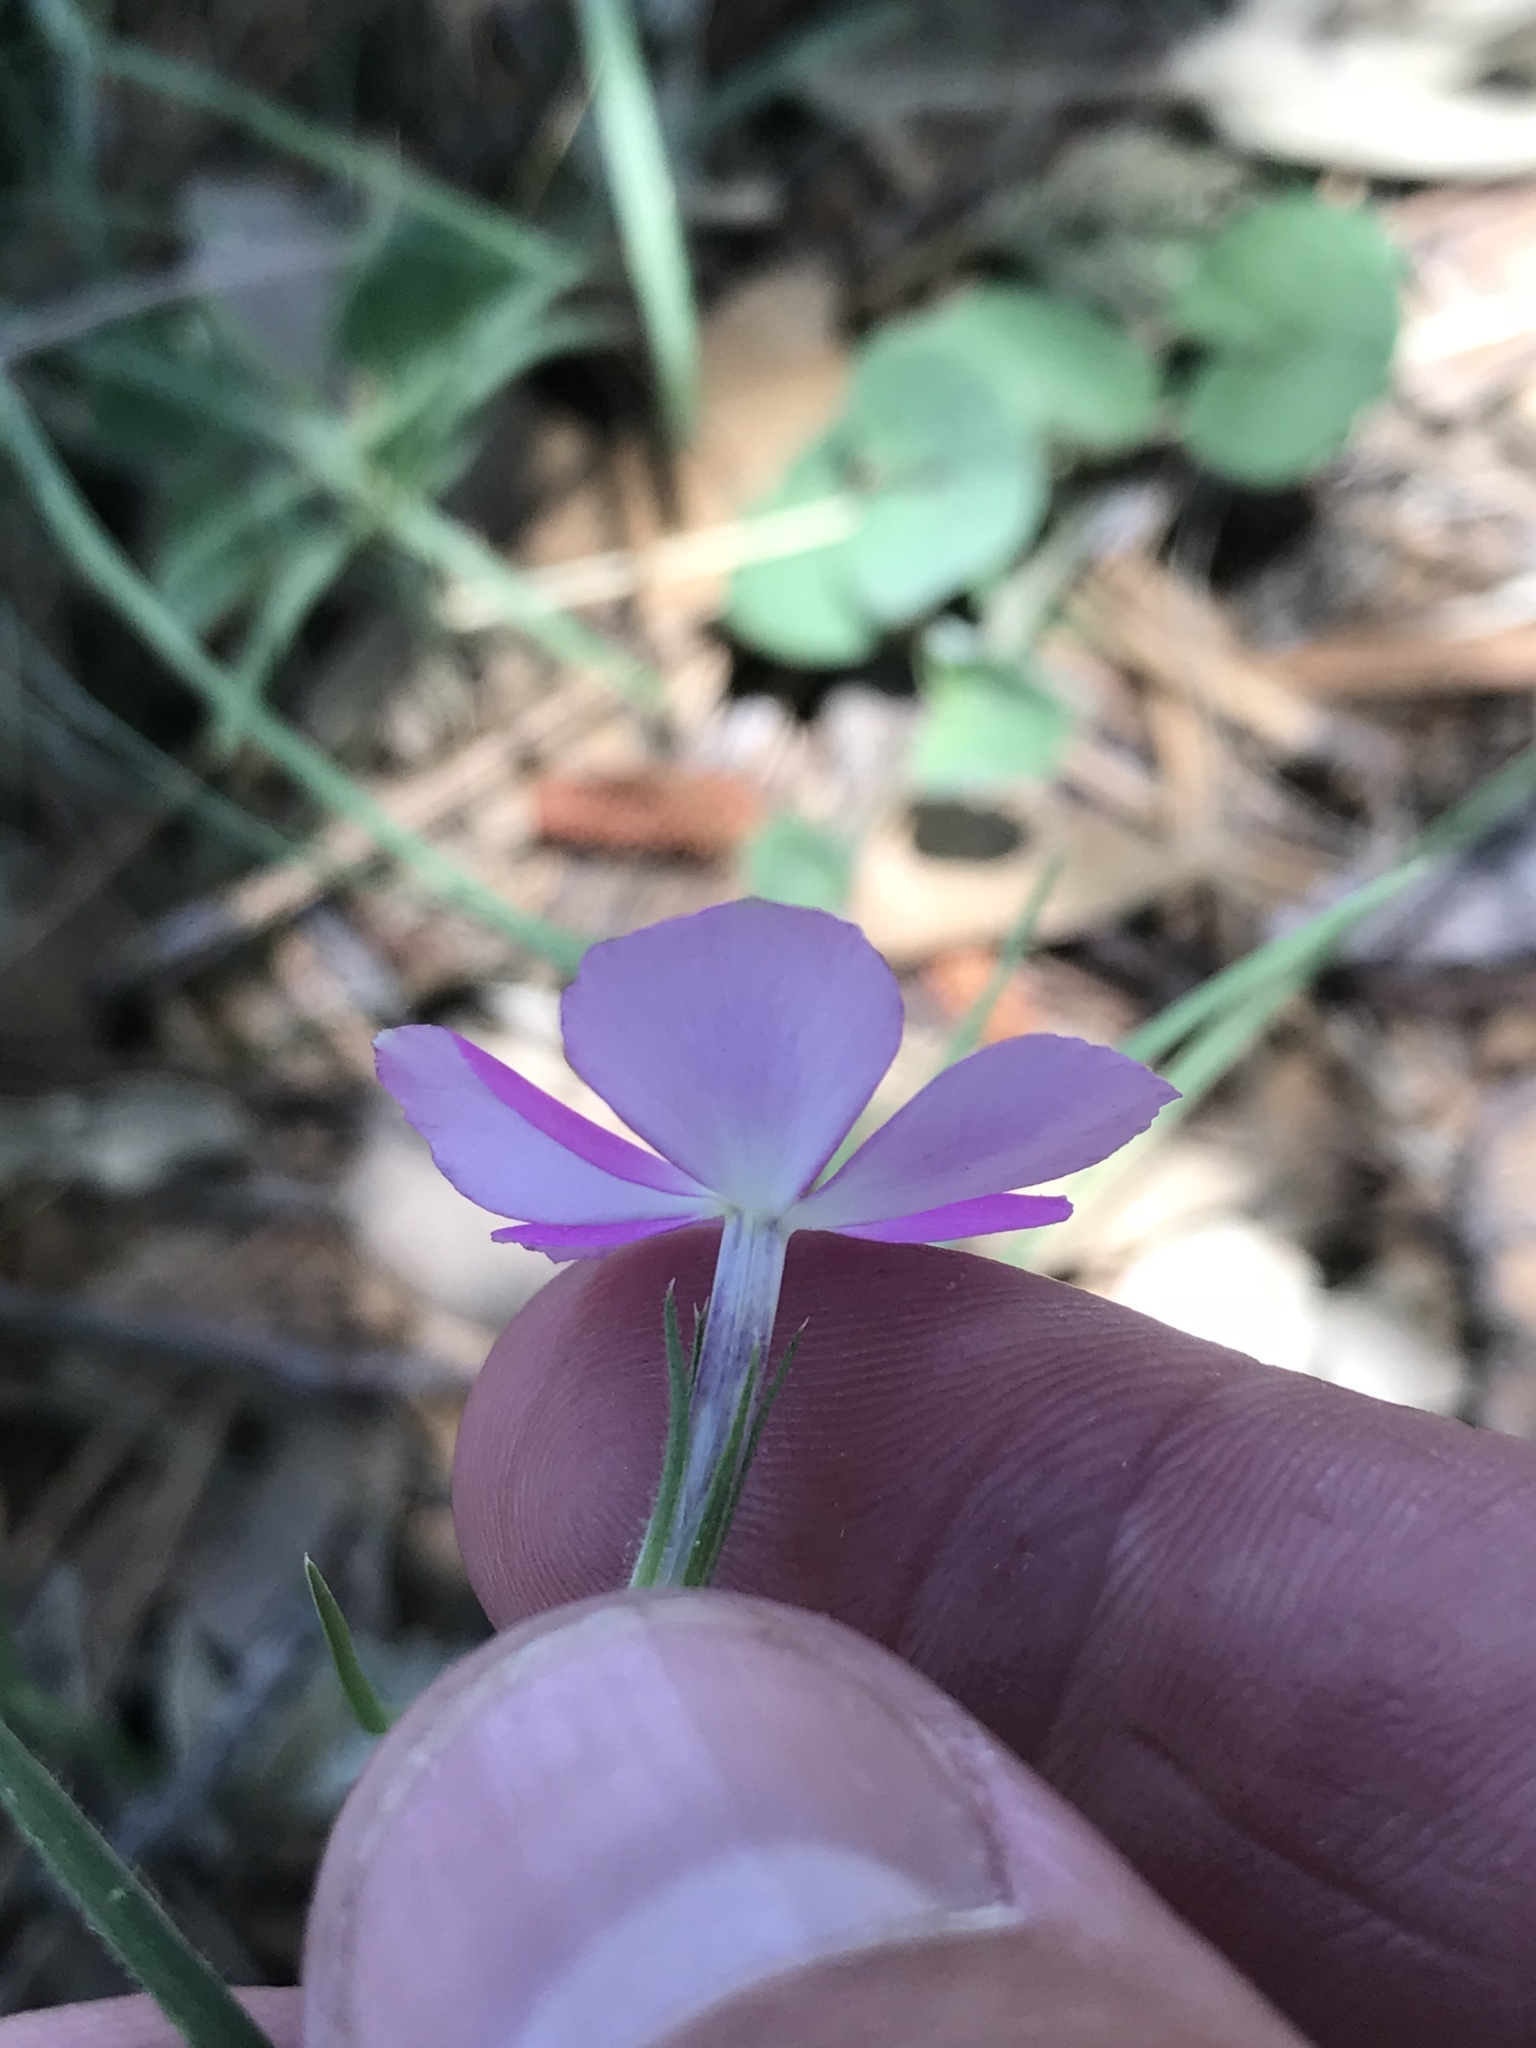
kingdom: Plantae
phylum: Tracheophyta
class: Magnoliopsida
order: Ericales
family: Polemoniaceae
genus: Phlox
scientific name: Phlox nana
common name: Santa fe phlox
